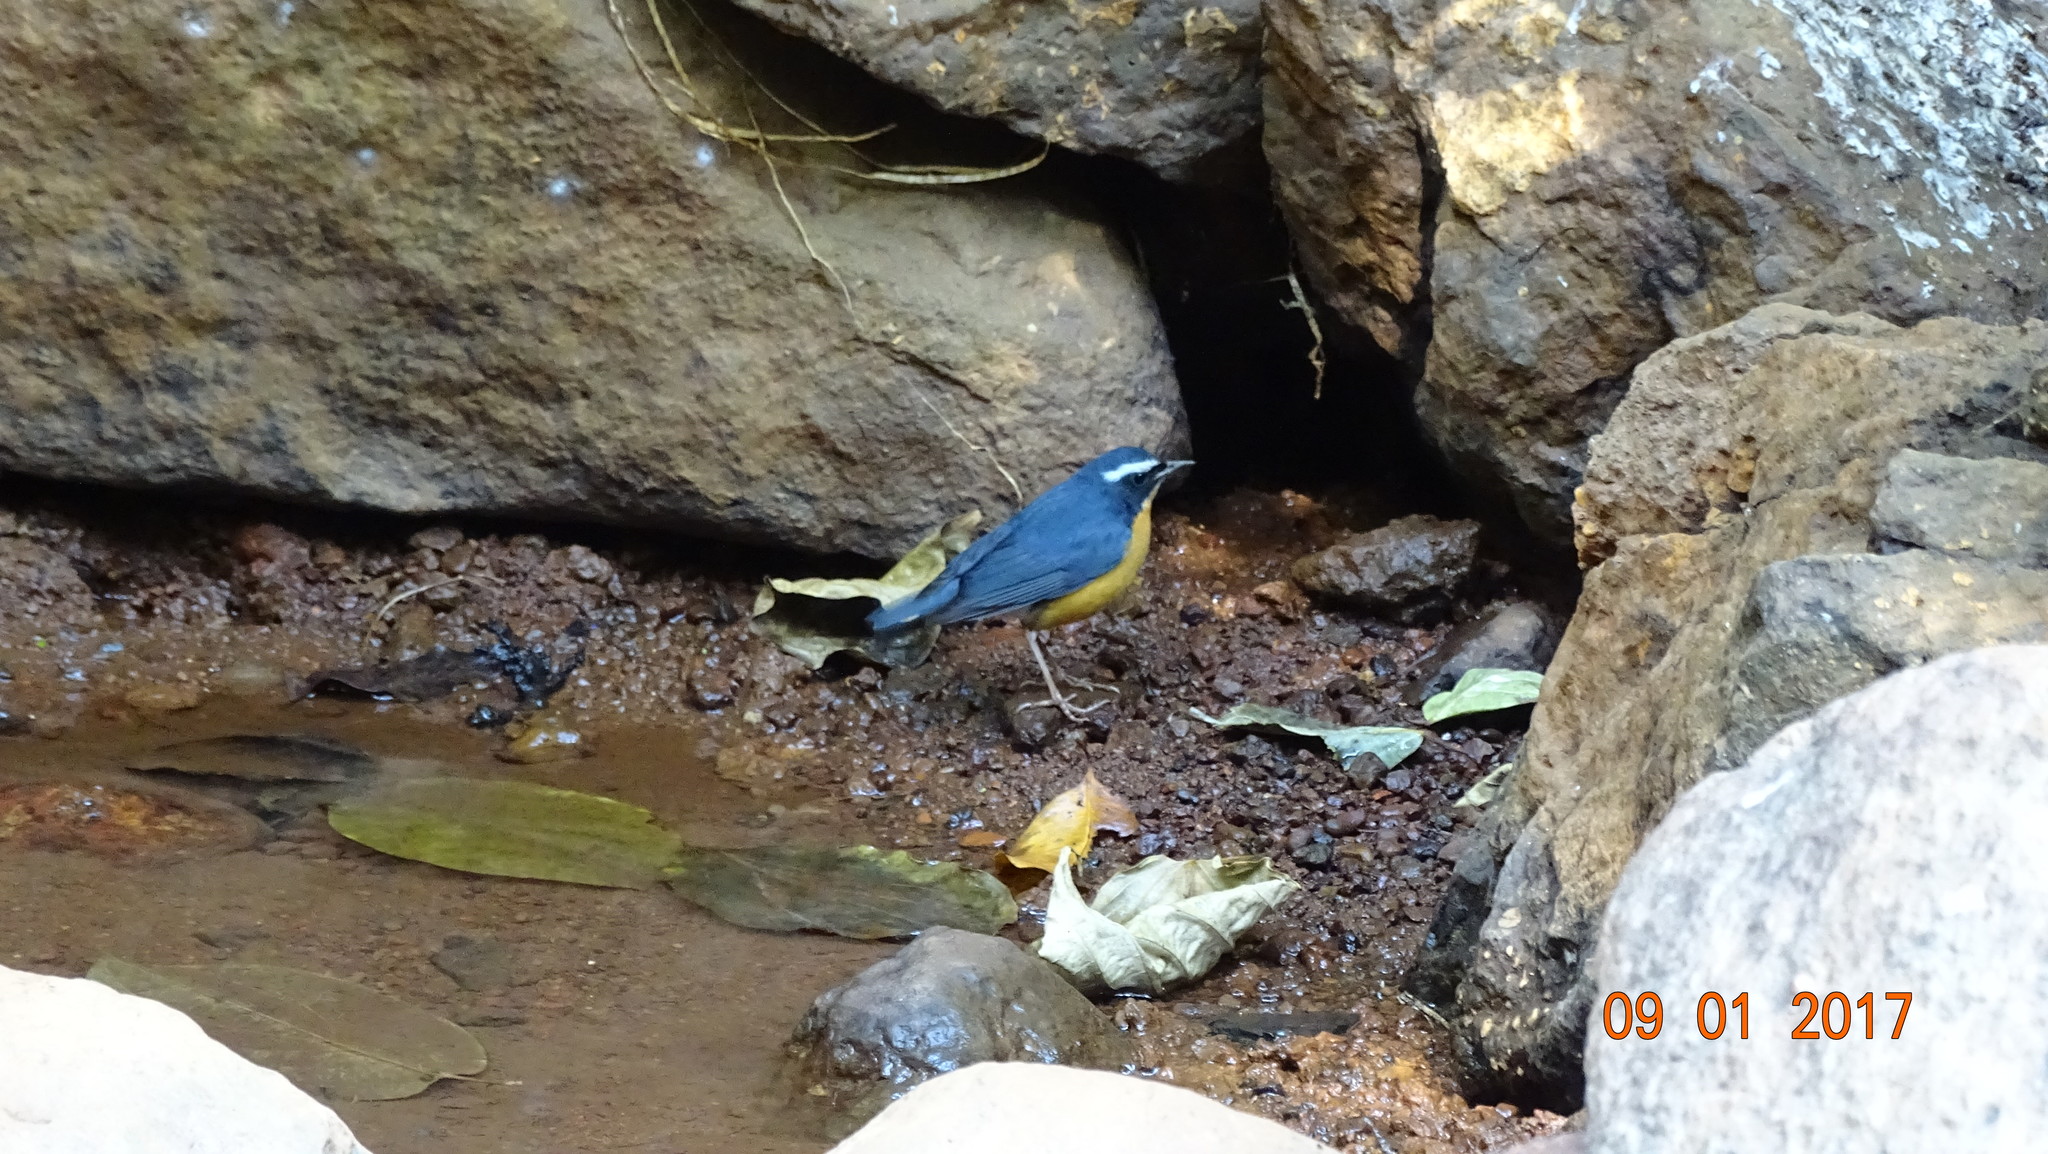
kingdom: Animalia
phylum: Chordata
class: Aves
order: Passeriformes
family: Muscicapidae
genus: Luscinia
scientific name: Luscinia brunnea
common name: Indian blue robin
